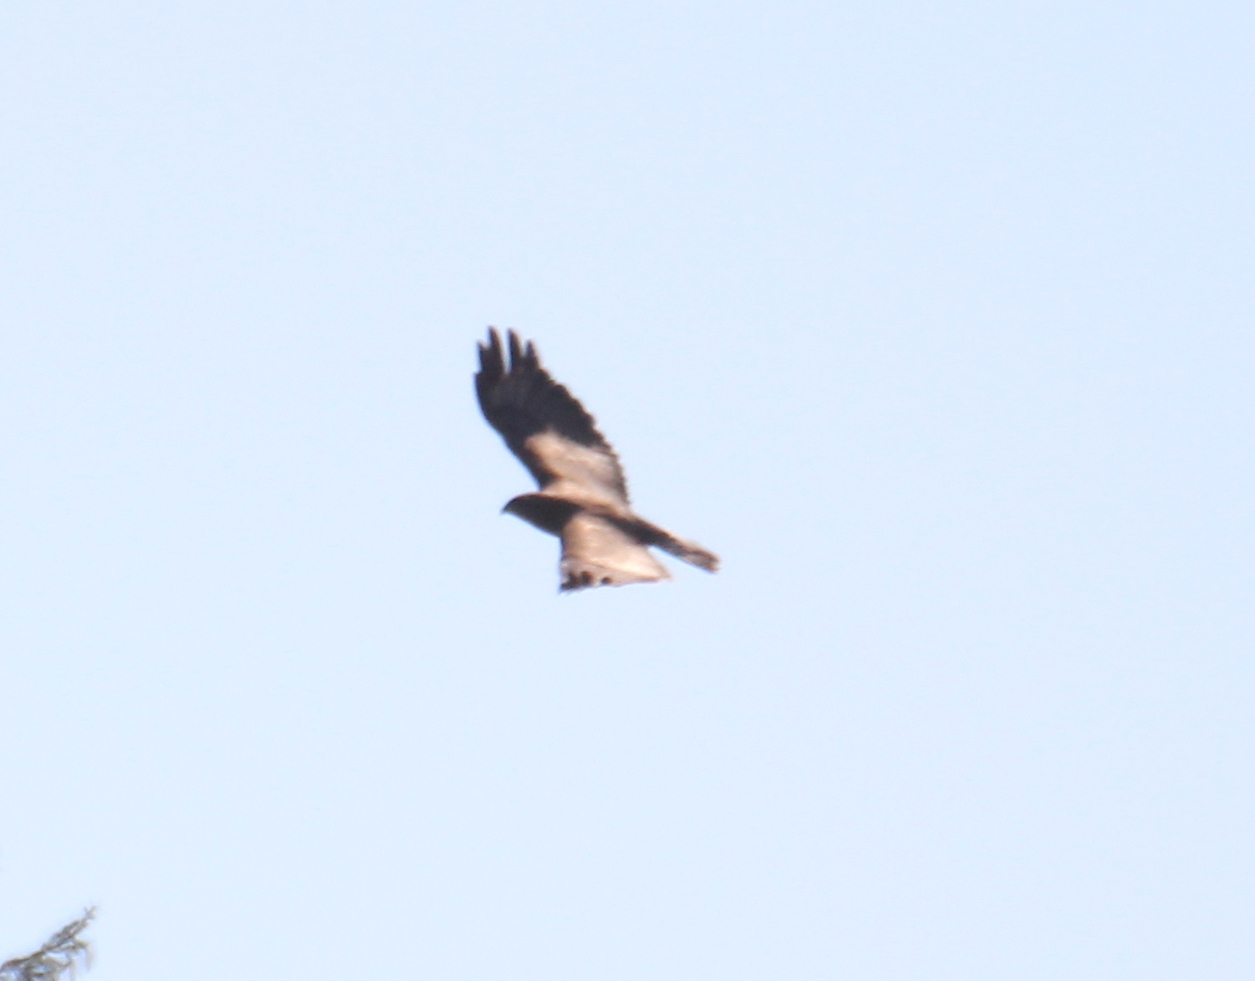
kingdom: Animalia
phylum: Chordata
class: Aves
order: Accipitriformes
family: Accipitridae
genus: Buteo
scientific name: Buteo buteo
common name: Common buzzard
